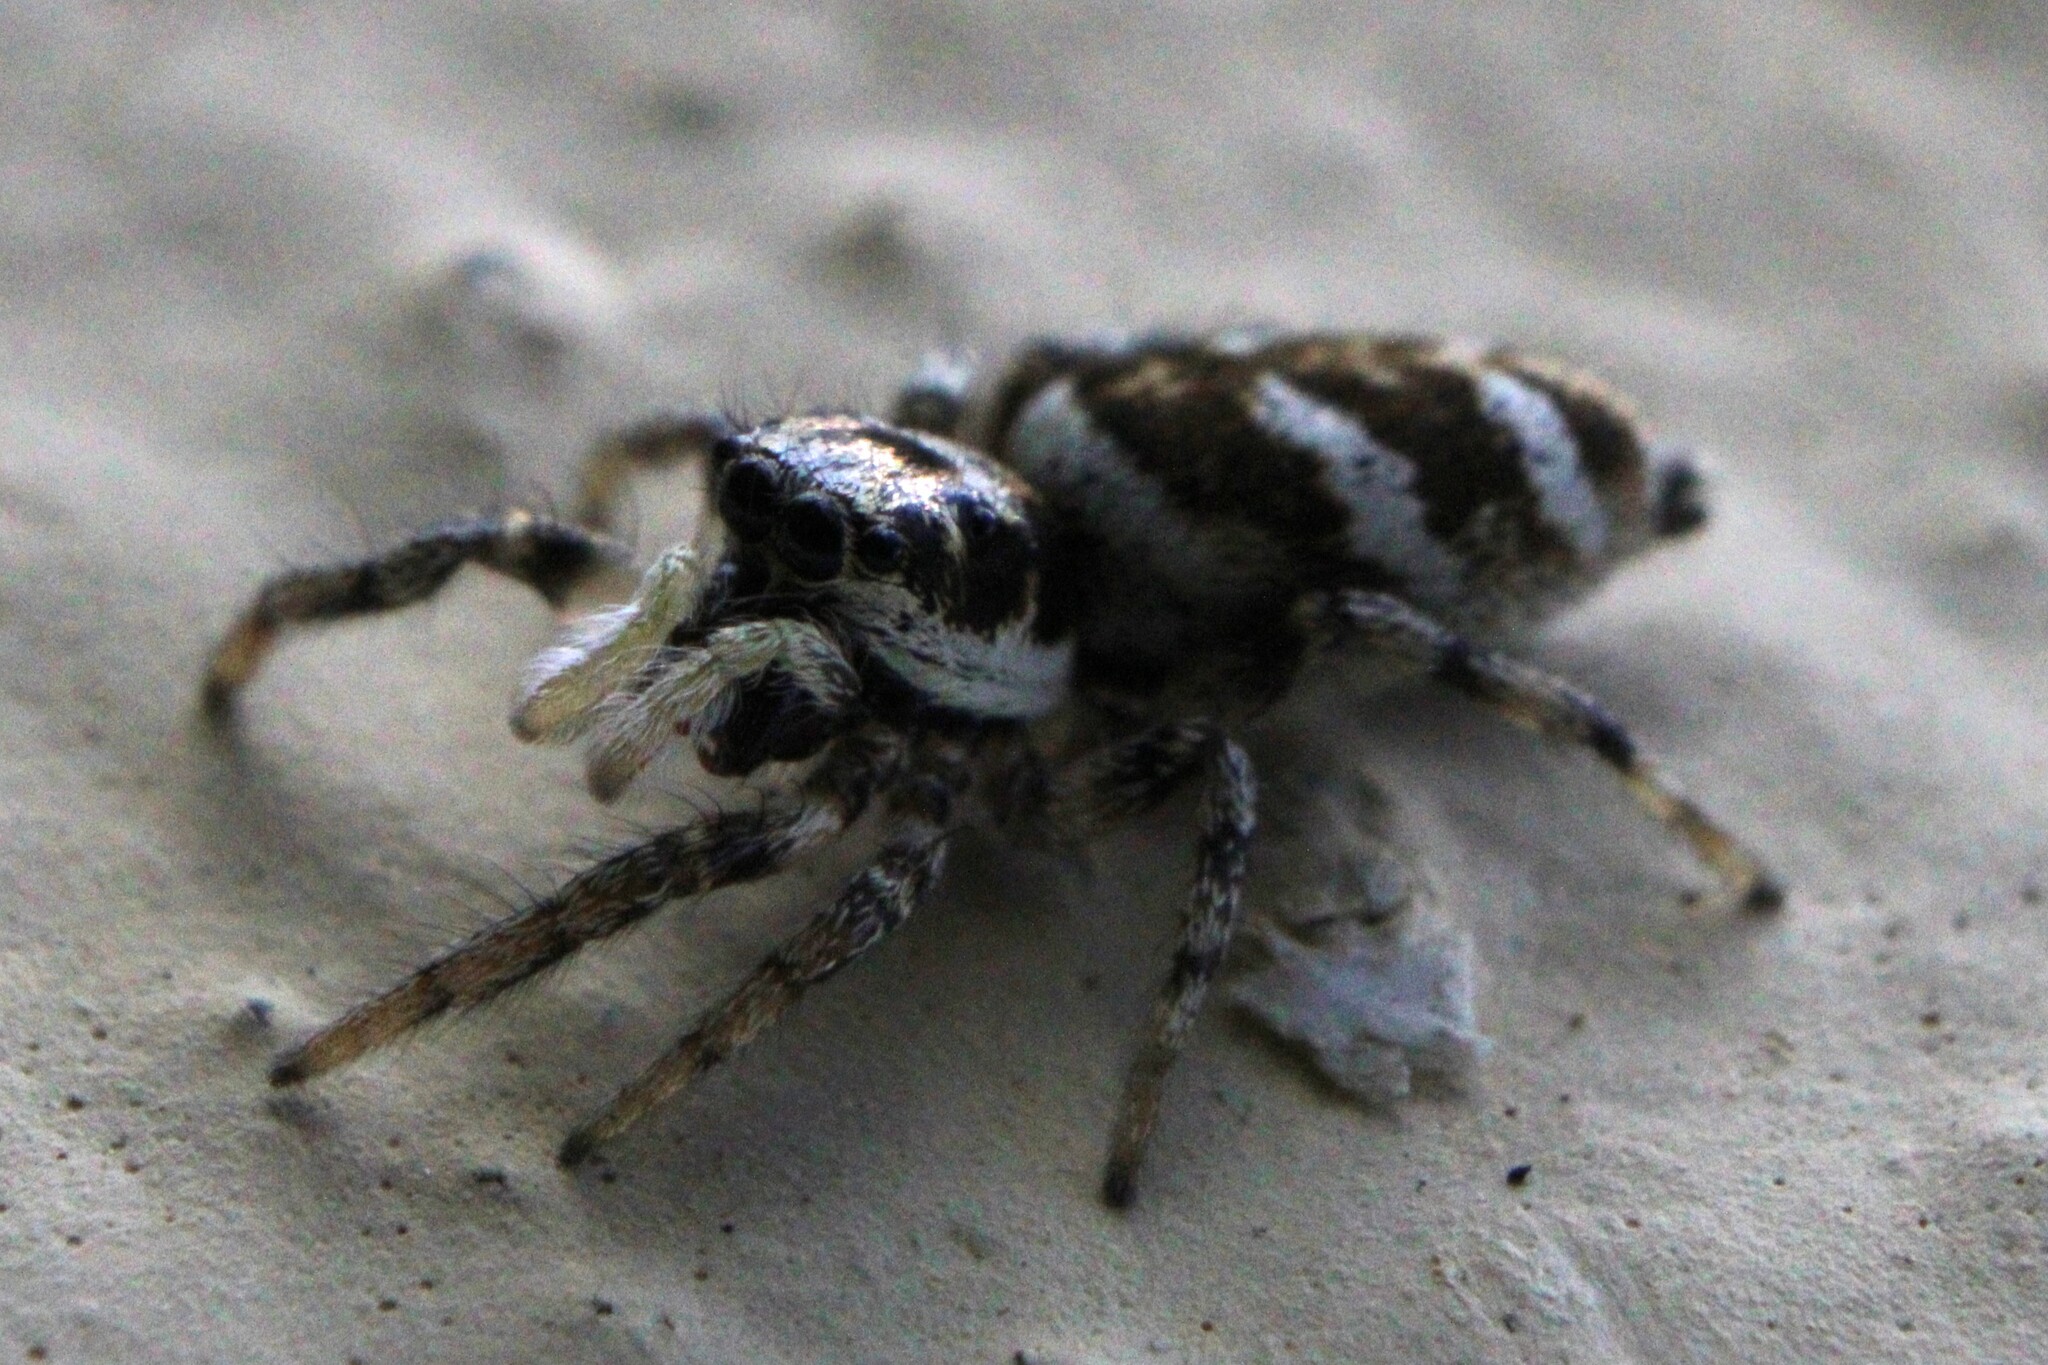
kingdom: Animalia
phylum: Arthropoda
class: Arachnida
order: Araneae
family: Salticidae
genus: Salticus
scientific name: Salticus scenicus
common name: Zebra jumper
